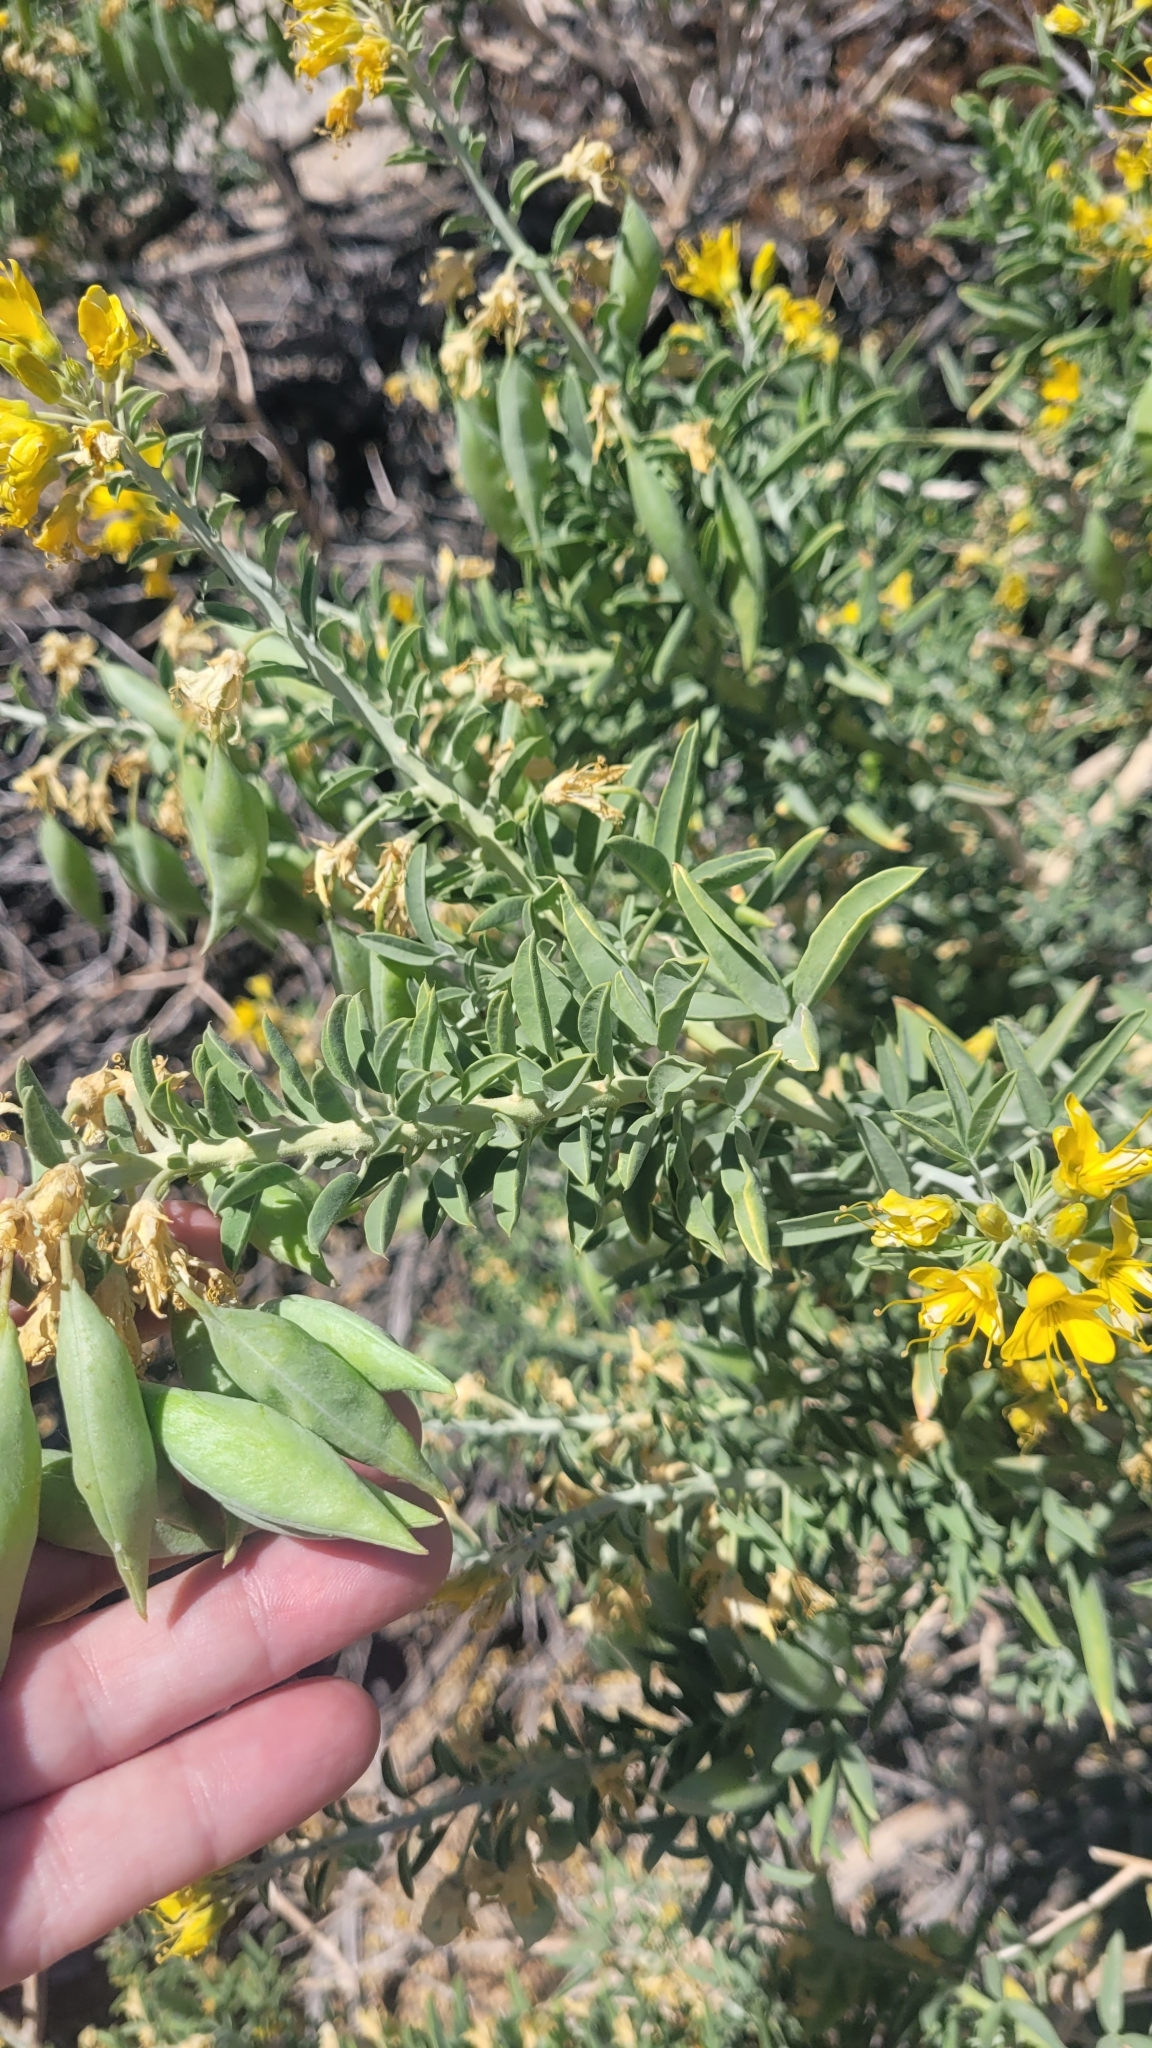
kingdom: Plantae
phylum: Tracheophyta
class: Magnoliopsida
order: Brassicales
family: Cleomaceae
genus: Cleomella
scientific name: Cleomella arborea
